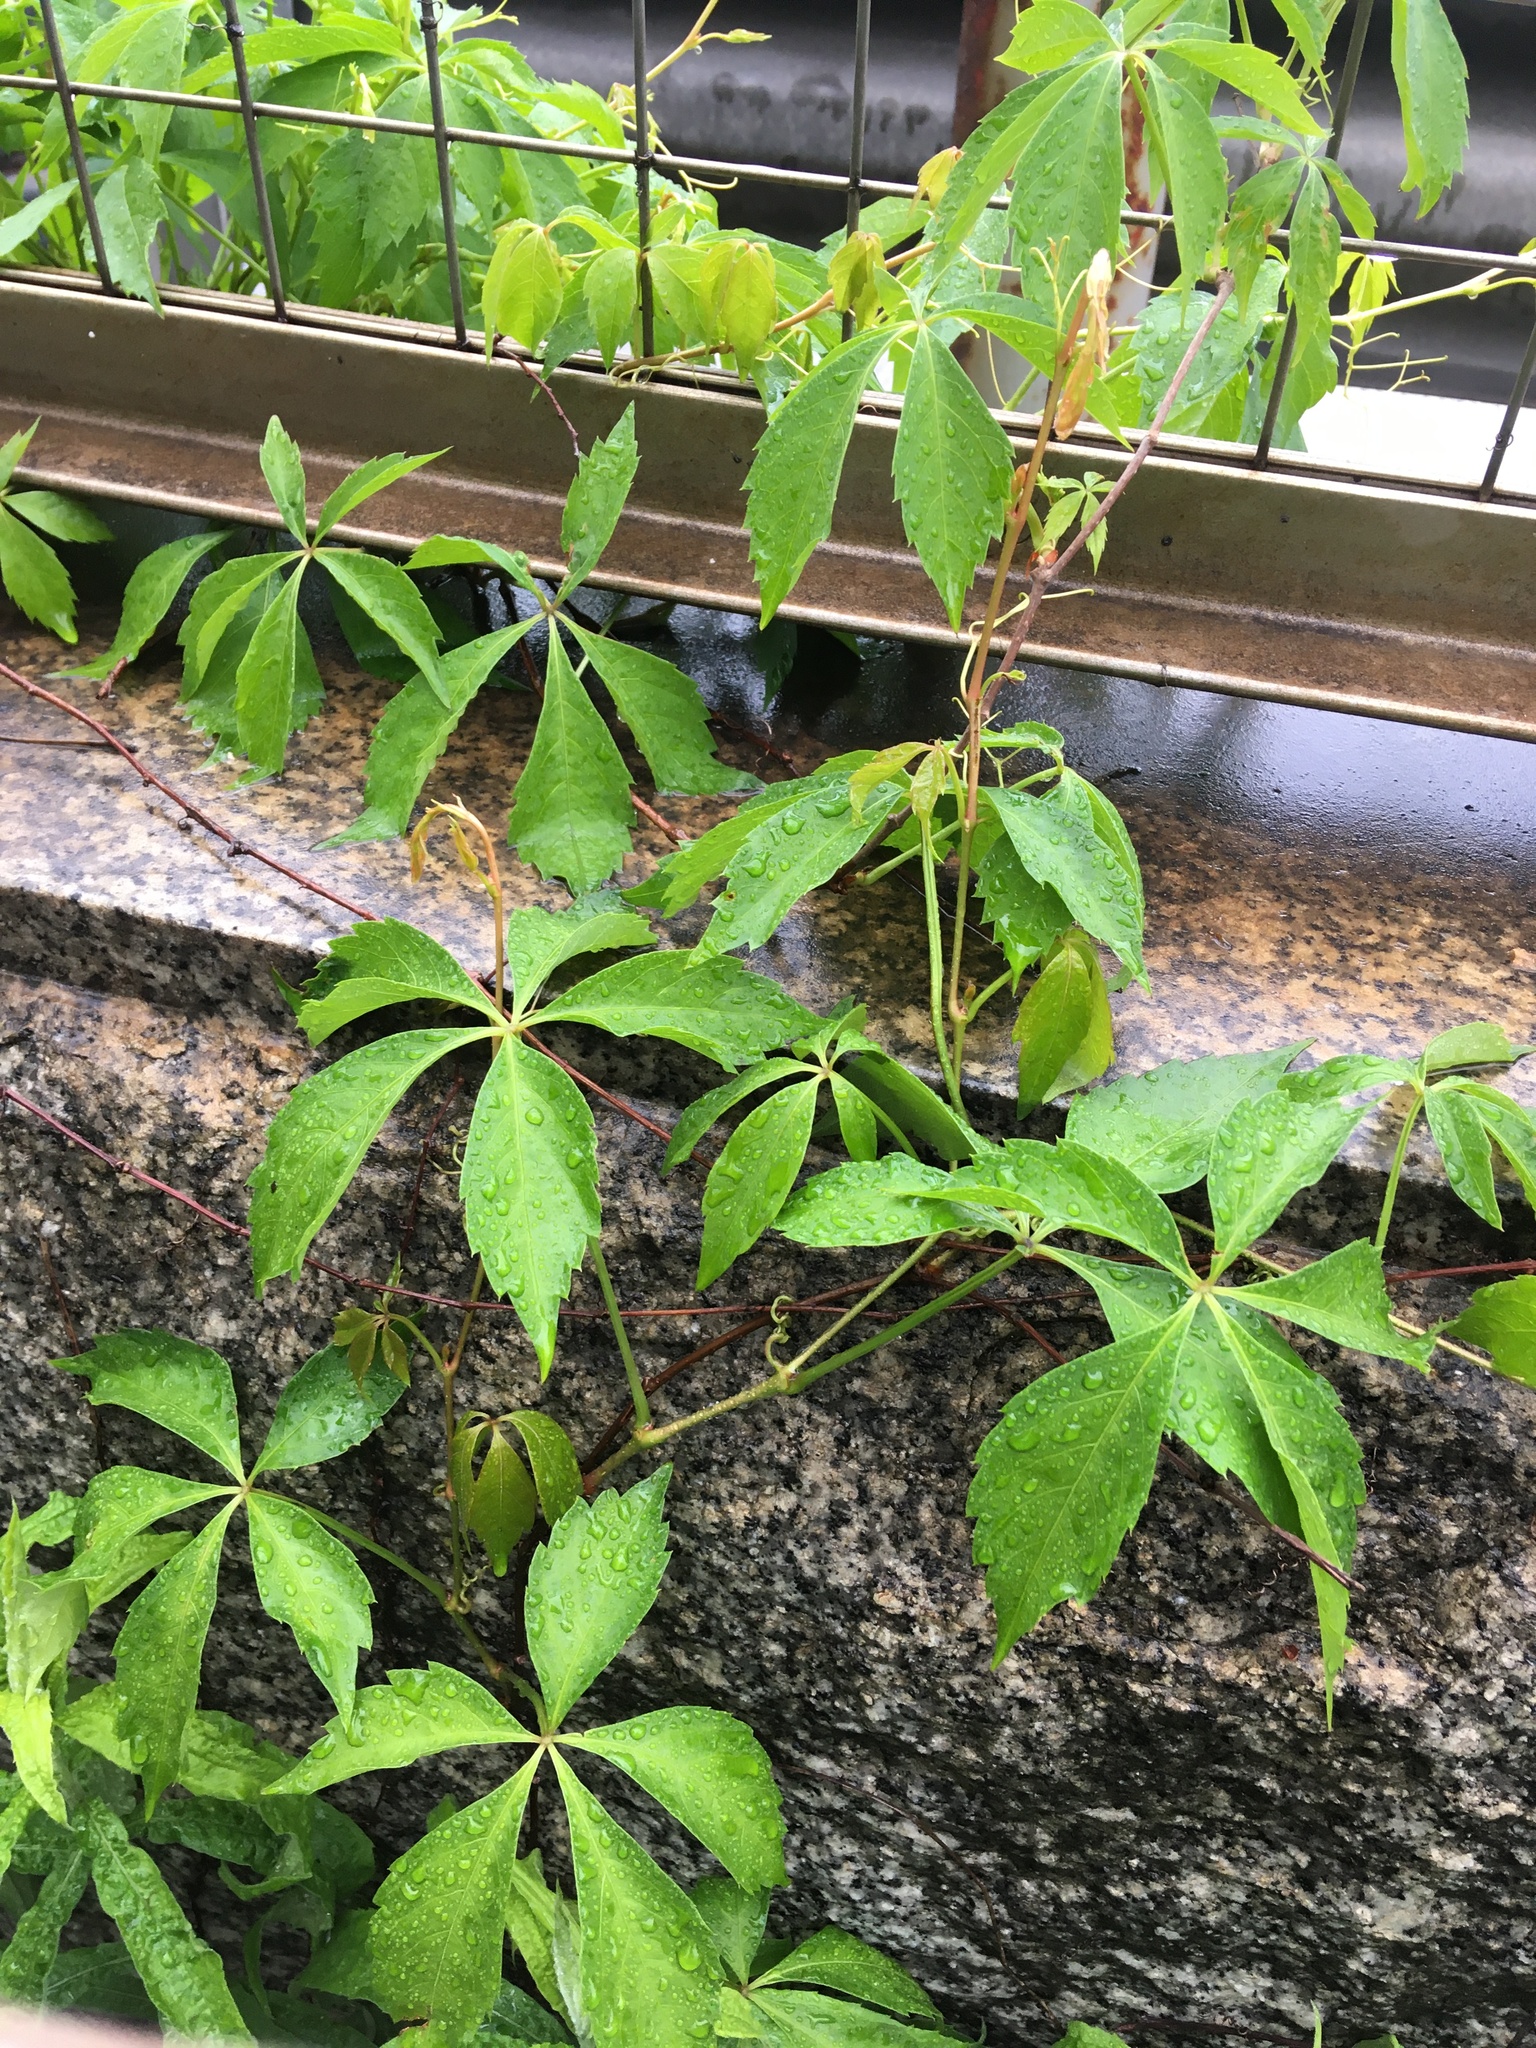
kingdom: Plantae
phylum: Tracheophyta
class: Magnoliopsida
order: Vitales
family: Vitaceae
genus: Parthenocissus
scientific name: Parthenocissus quinquefolia
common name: Virginia-creeper
